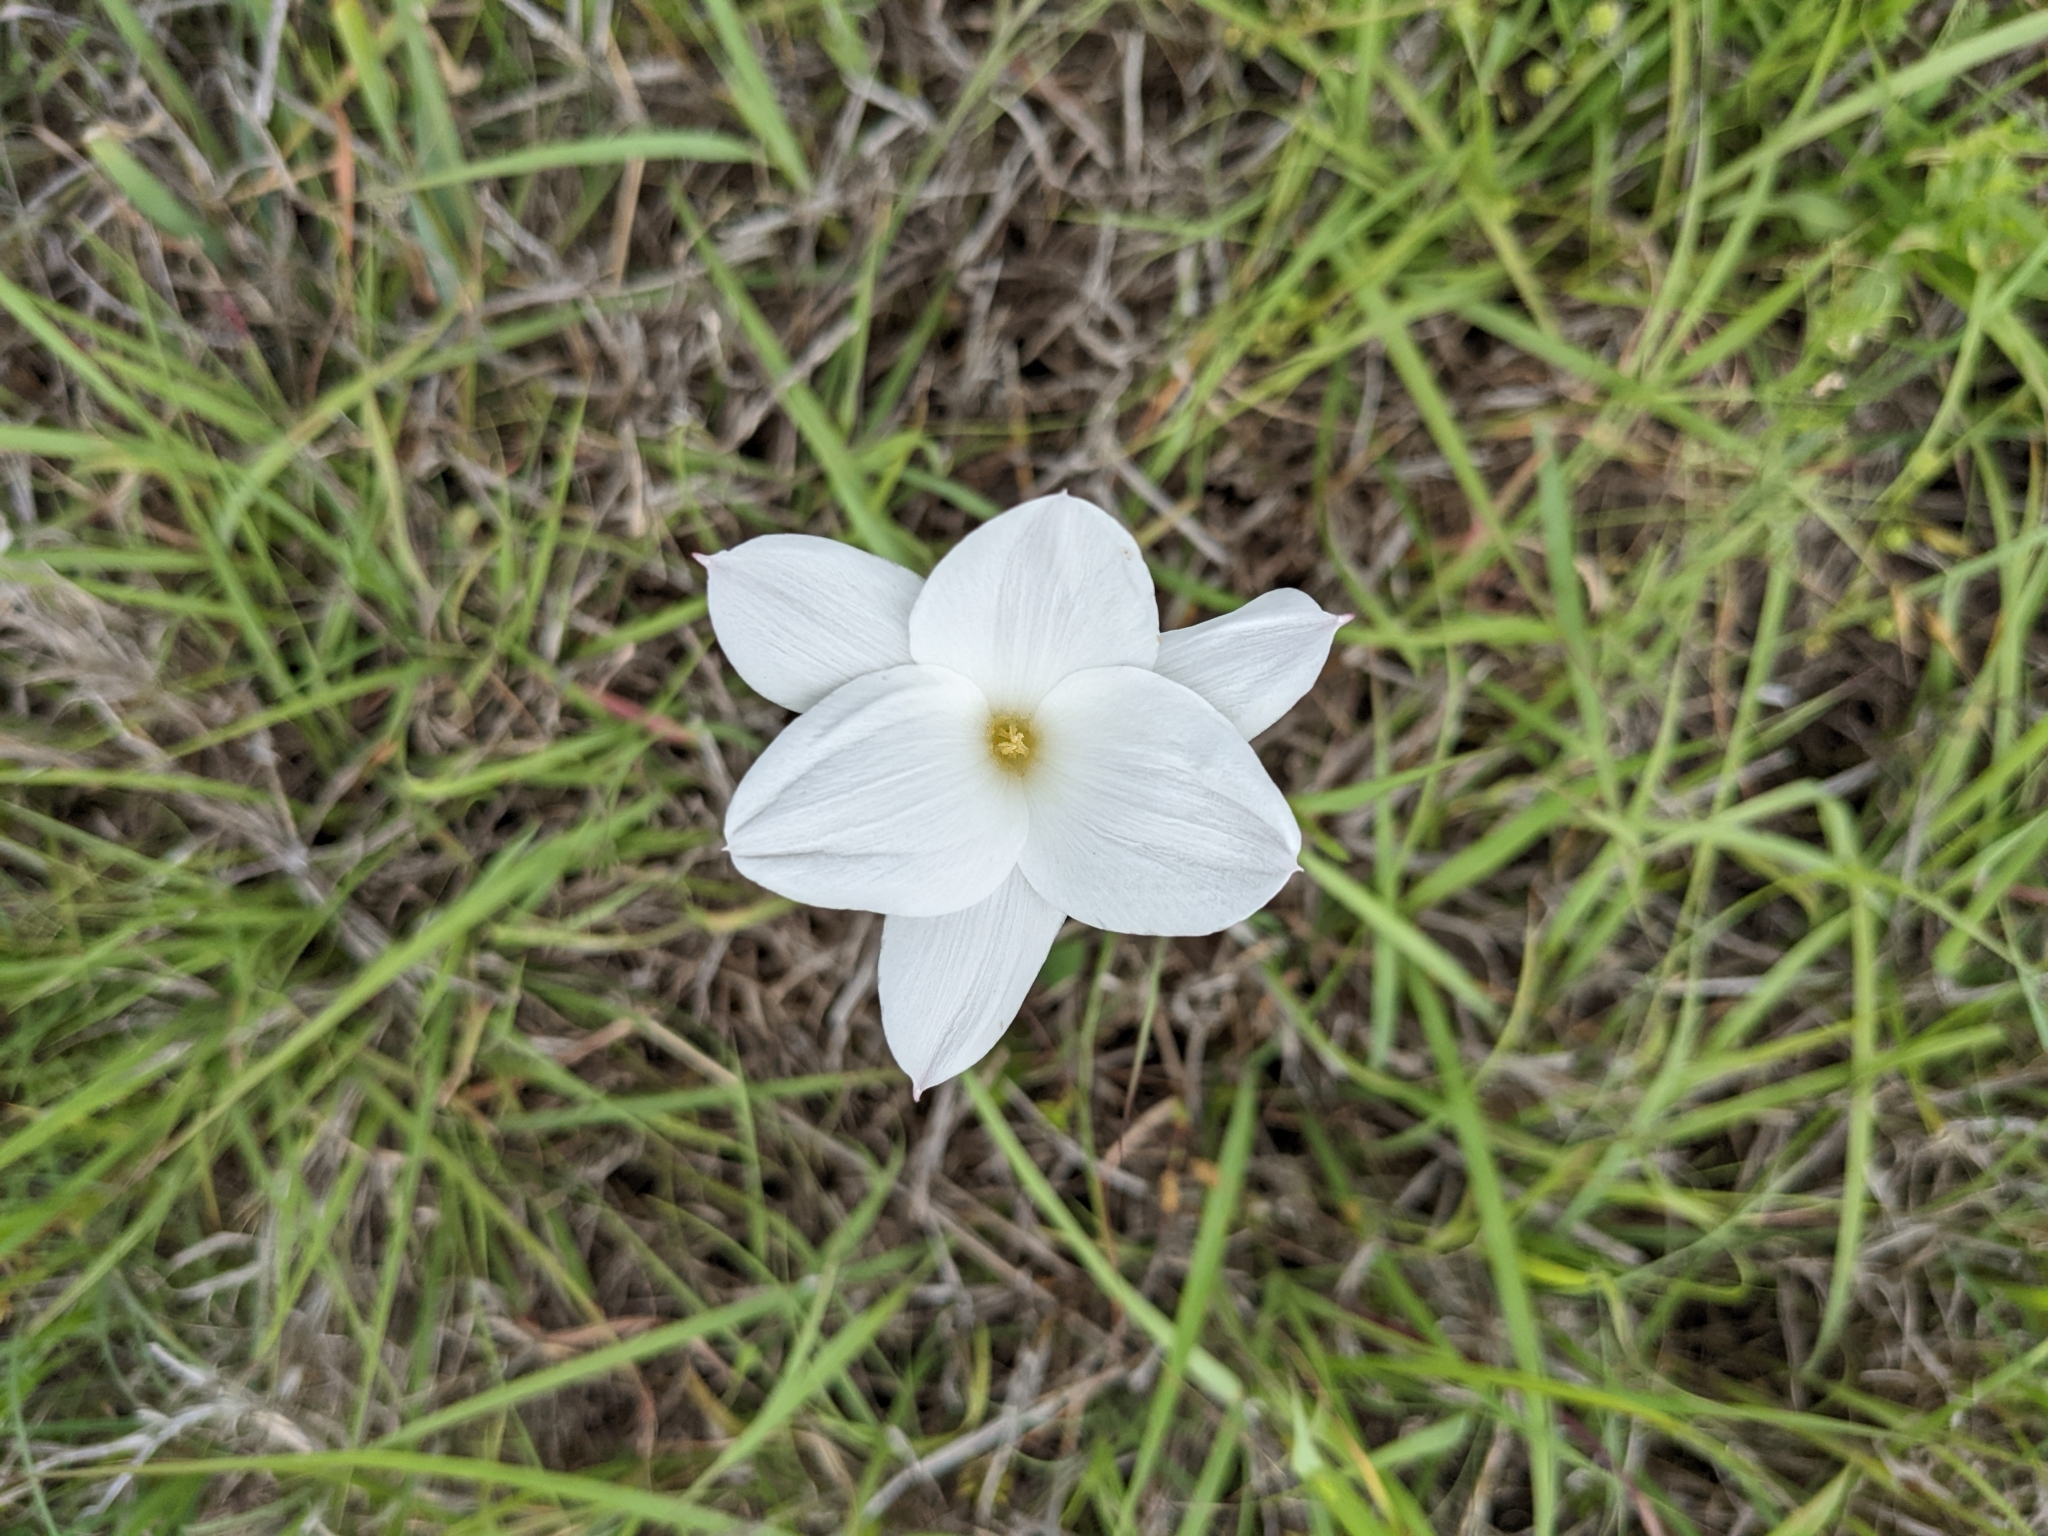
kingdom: Plantae
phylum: Tracheophyta
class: Liliopsida
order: Asparagales
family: Amaryllidaceae
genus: Zephyranthes
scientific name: Zephyranthes drummondii
